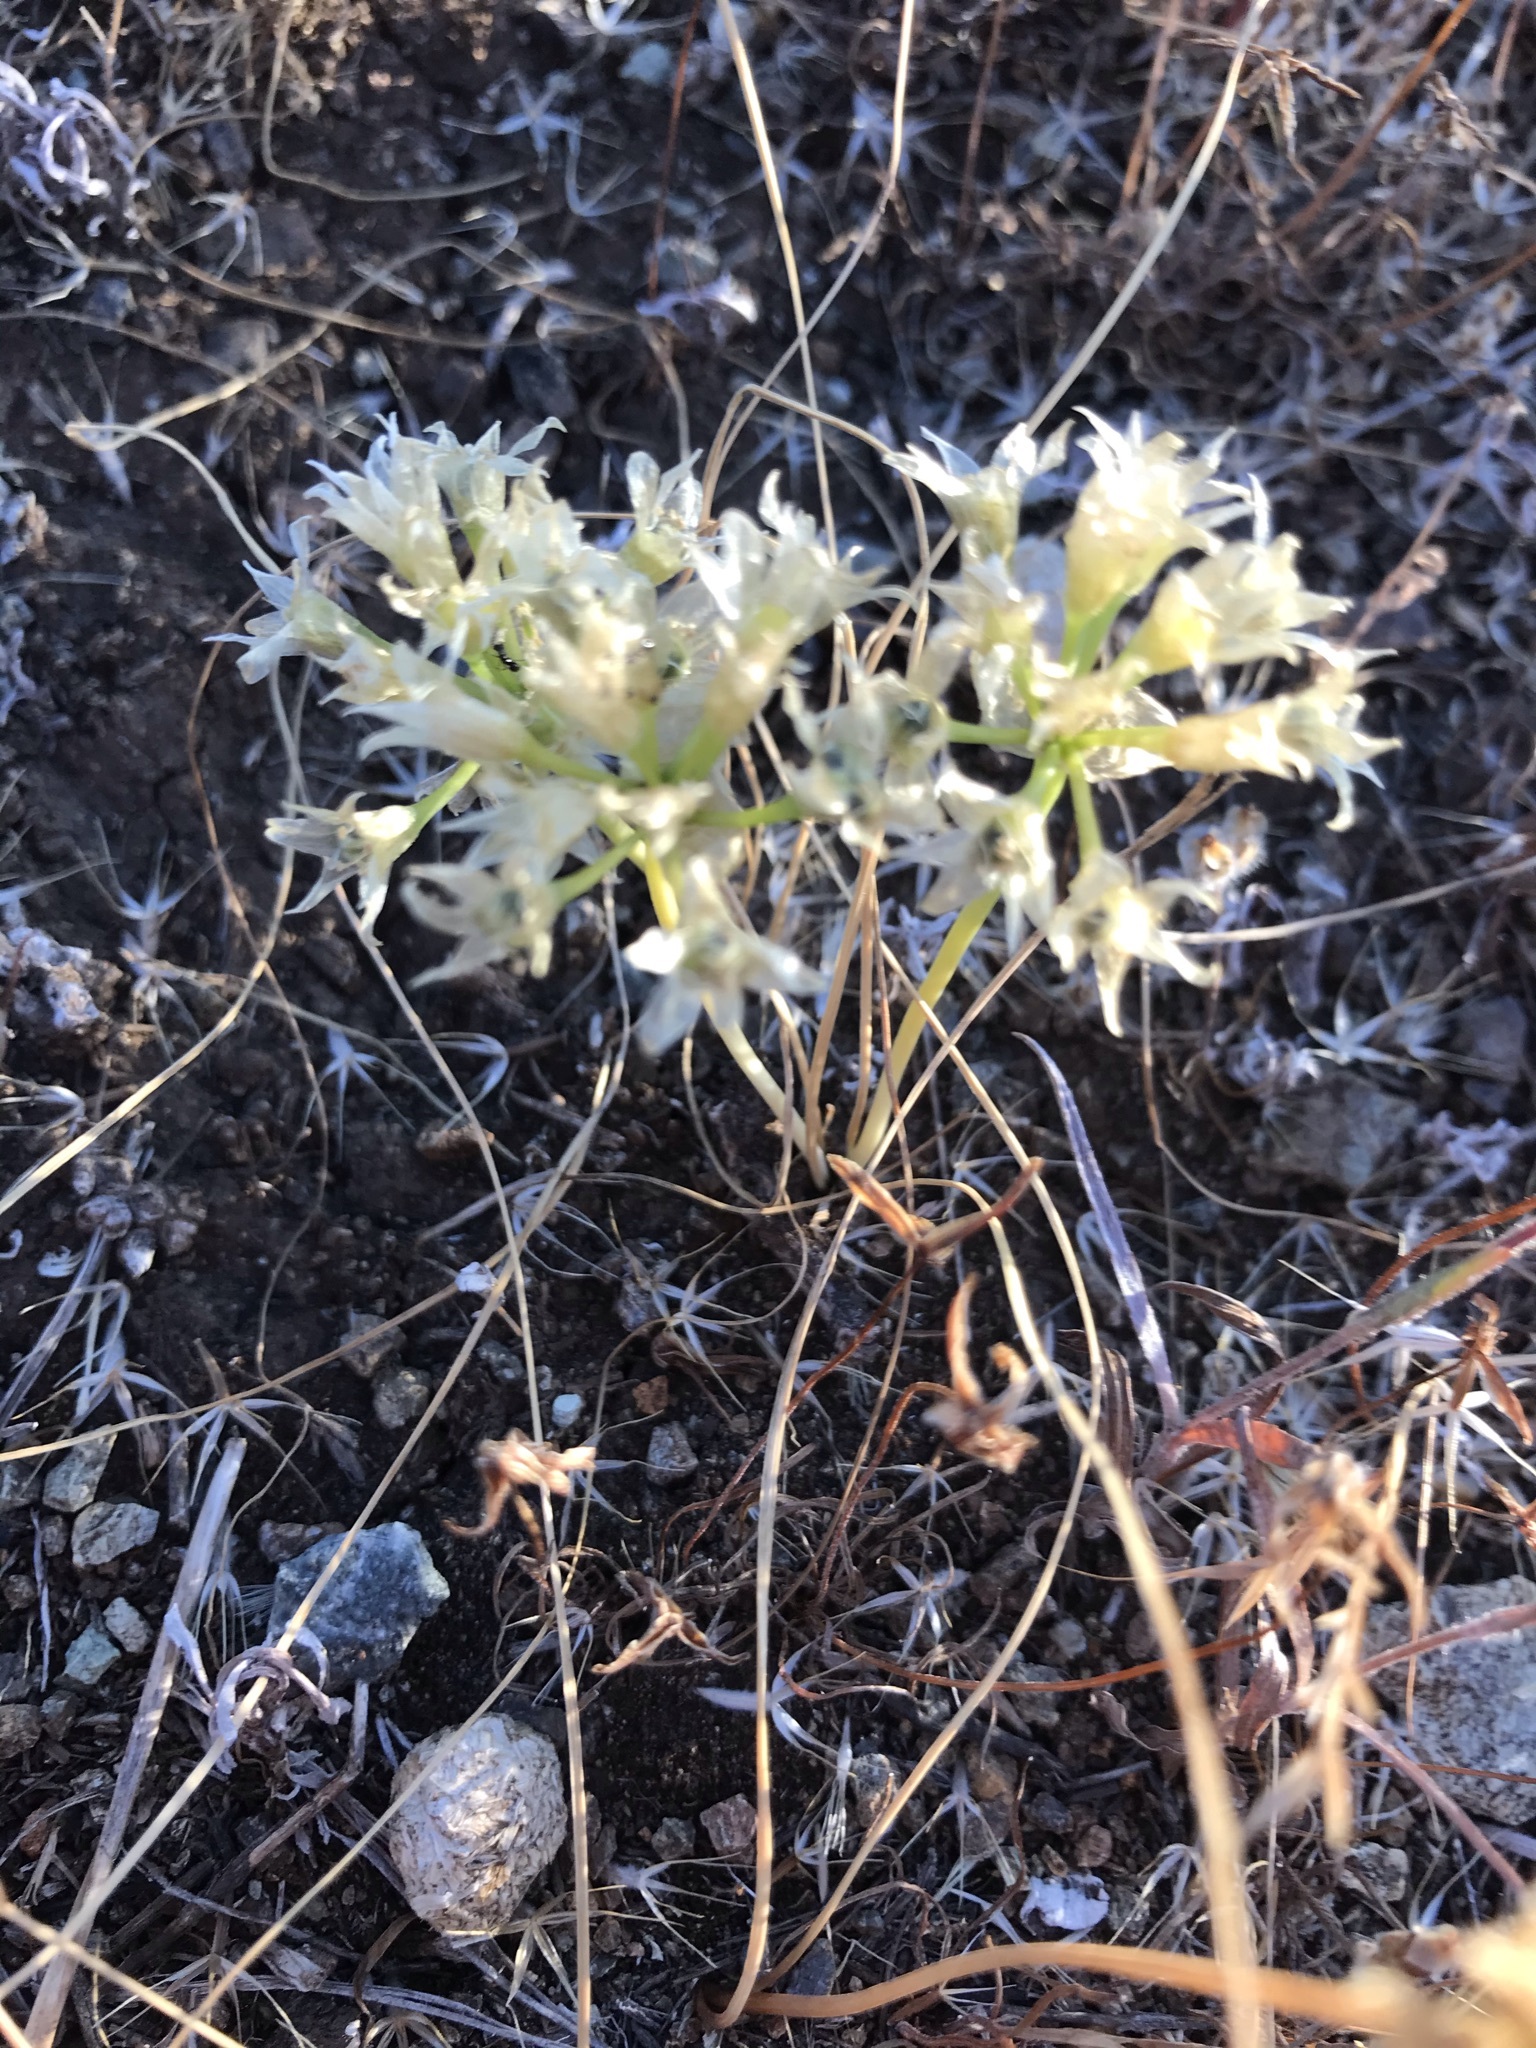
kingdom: Plantae
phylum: Tracheophyta
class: Liliopsida
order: Asparagales
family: Amaryllidaceae
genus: Allium
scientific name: Allium lacunosum
